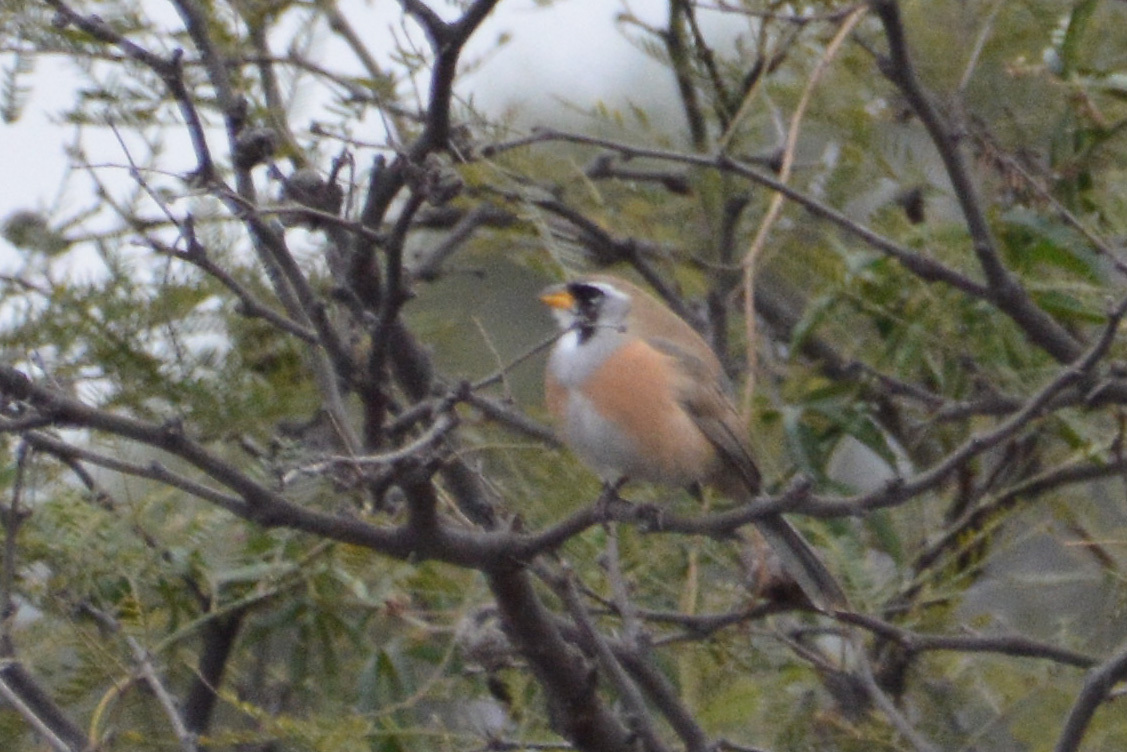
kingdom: Animalia
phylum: Chordata
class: Aves
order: Passeriformes
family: Thraupidae
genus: Saltatricula
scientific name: Saltatricula multicolor
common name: Many-colored chaco finch
